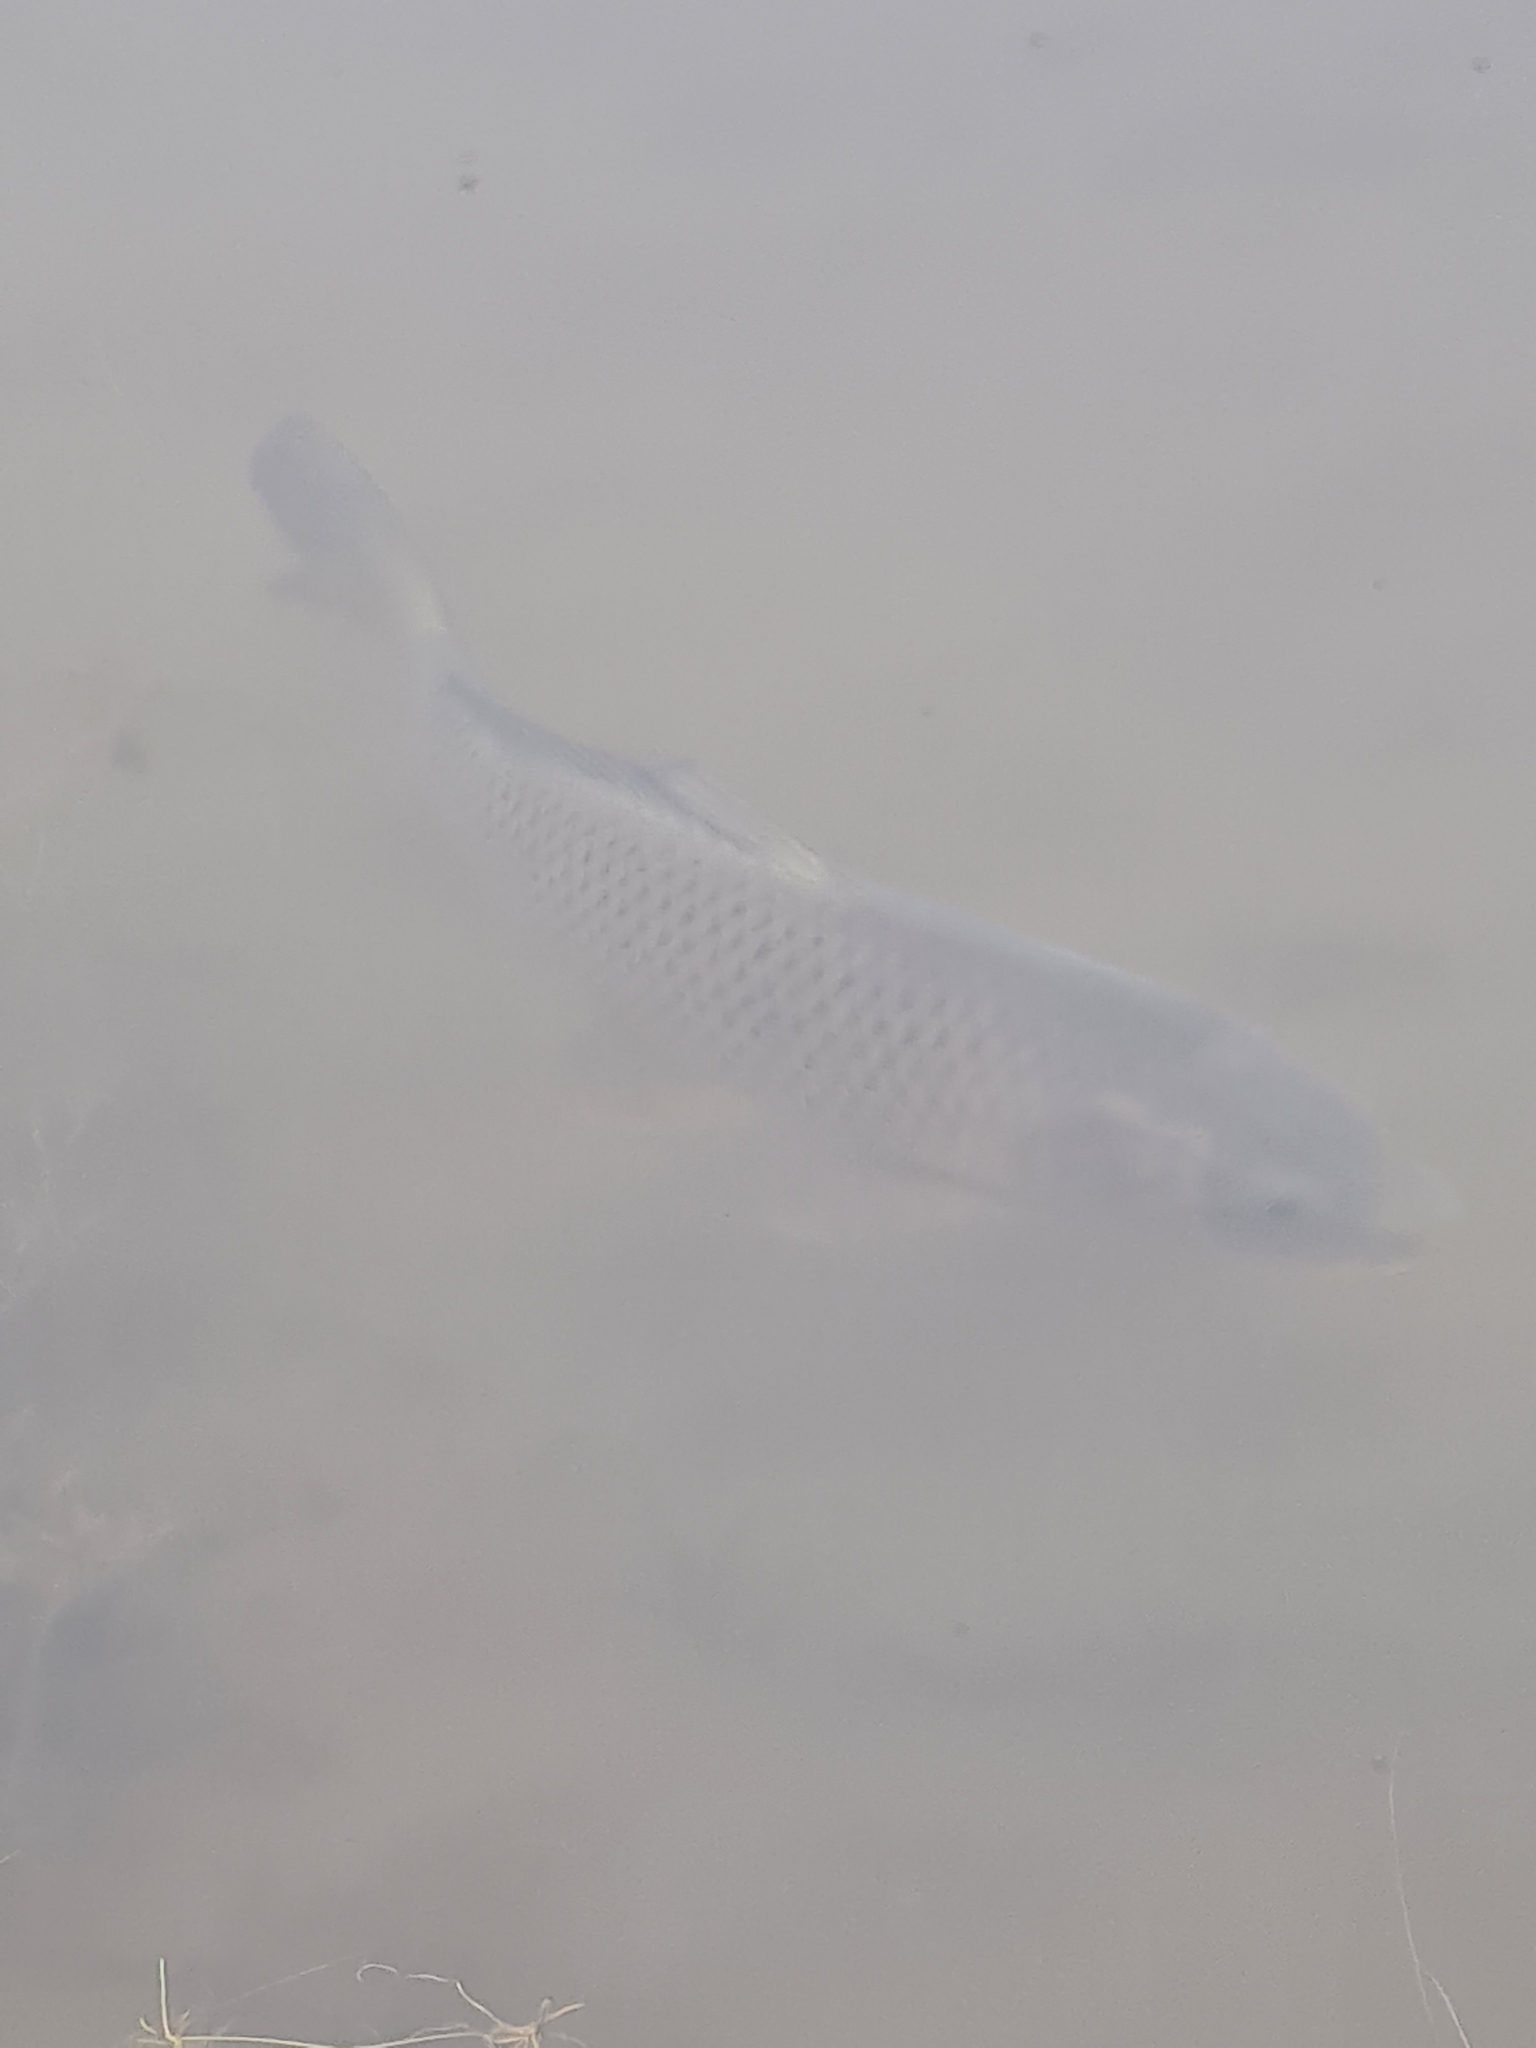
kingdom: Animalia
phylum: Chordata
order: Cypriniformes
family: Cyprinidae
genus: Cyprinus
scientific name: Cyprinus carpio
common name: Common carp
